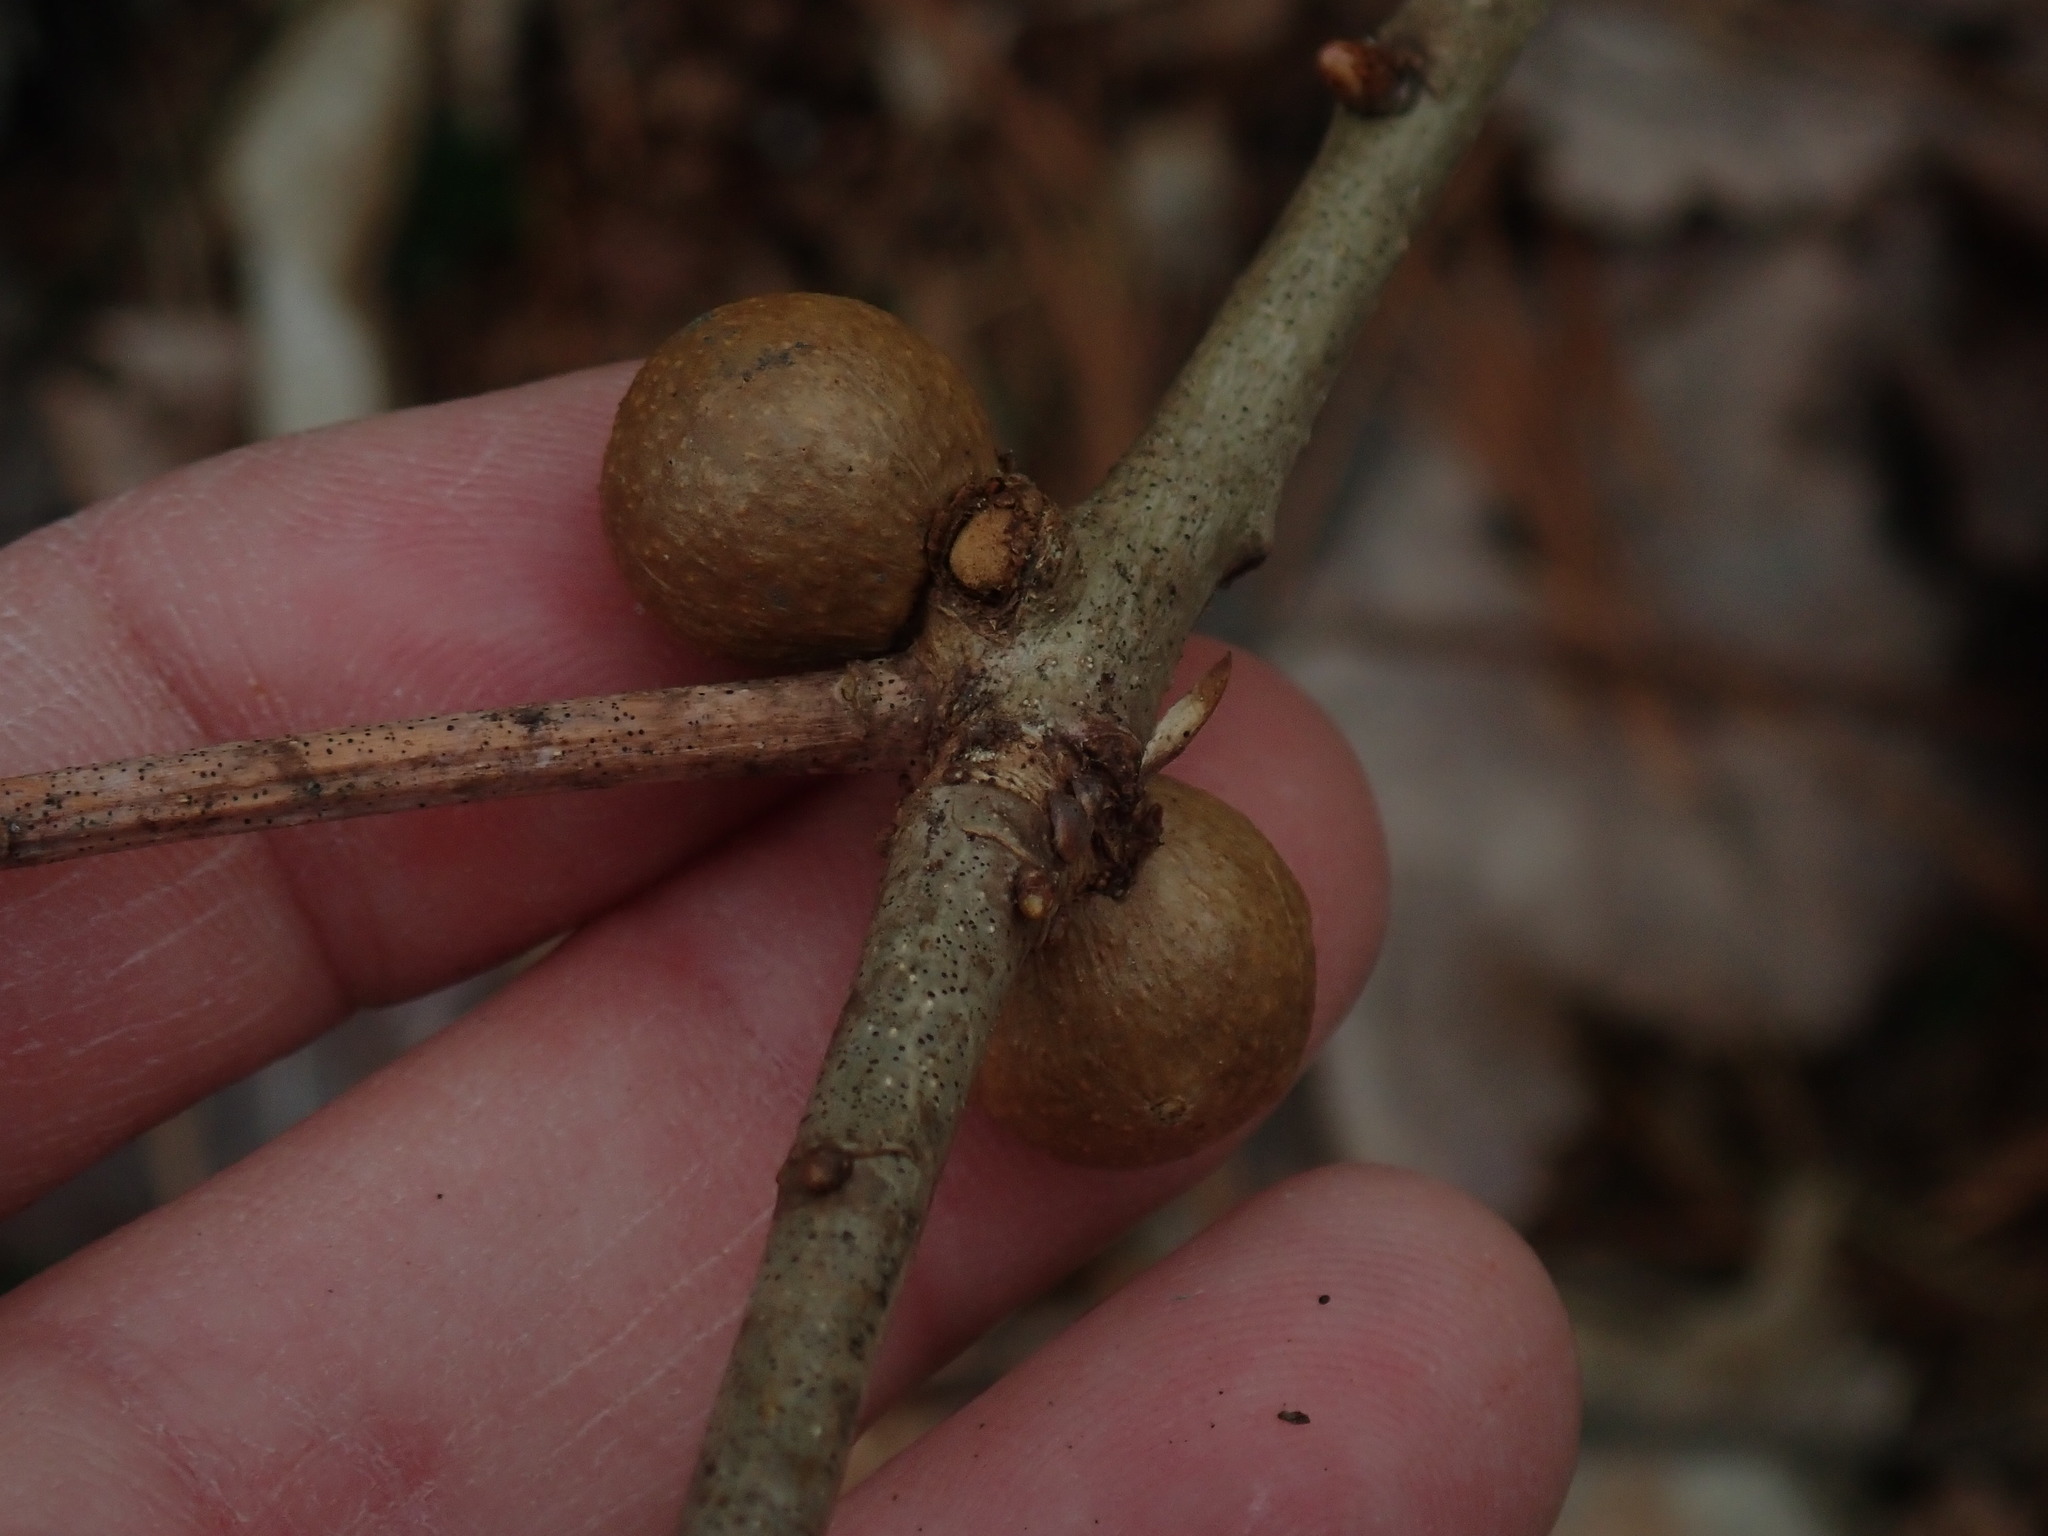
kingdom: Animalia
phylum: Arthropoda
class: Insecta
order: Hymenoptera
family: Cynipidae
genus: Disholcaspis
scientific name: Disholcaspis quercusglobulus
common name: Round bullet gall wasp
